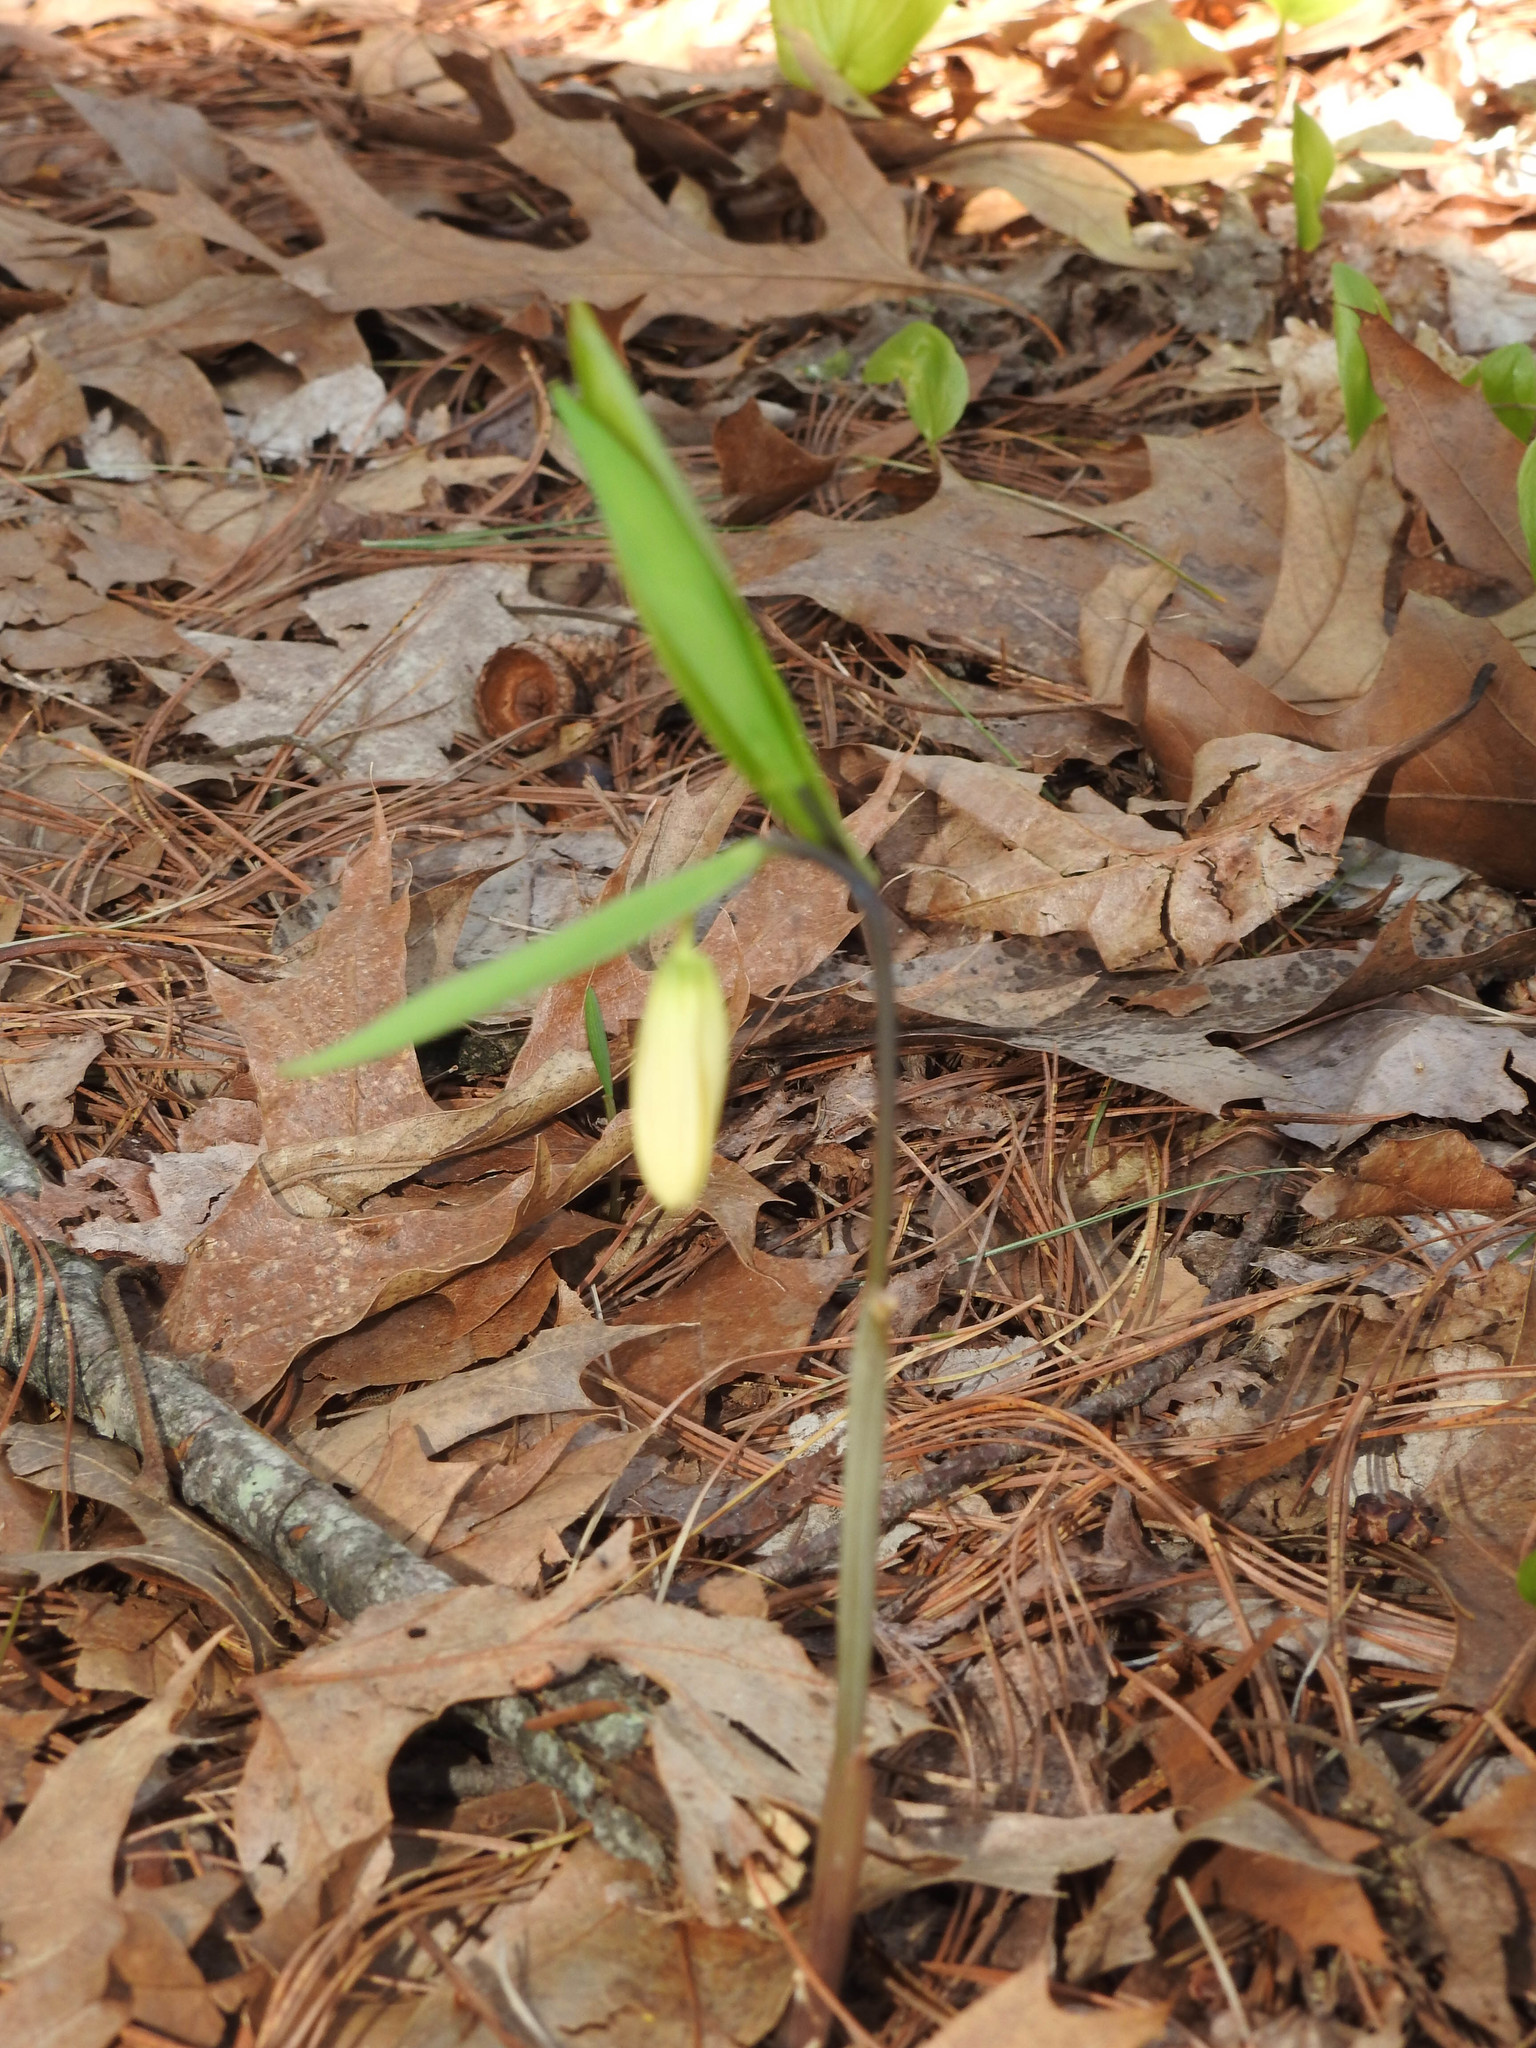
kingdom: Plantae
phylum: Tracheophyta
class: Liliopsida
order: Liliales
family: Colchicaceae
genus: Uvularia
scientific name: Uvularia sessilifolia
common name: Straw-lily
